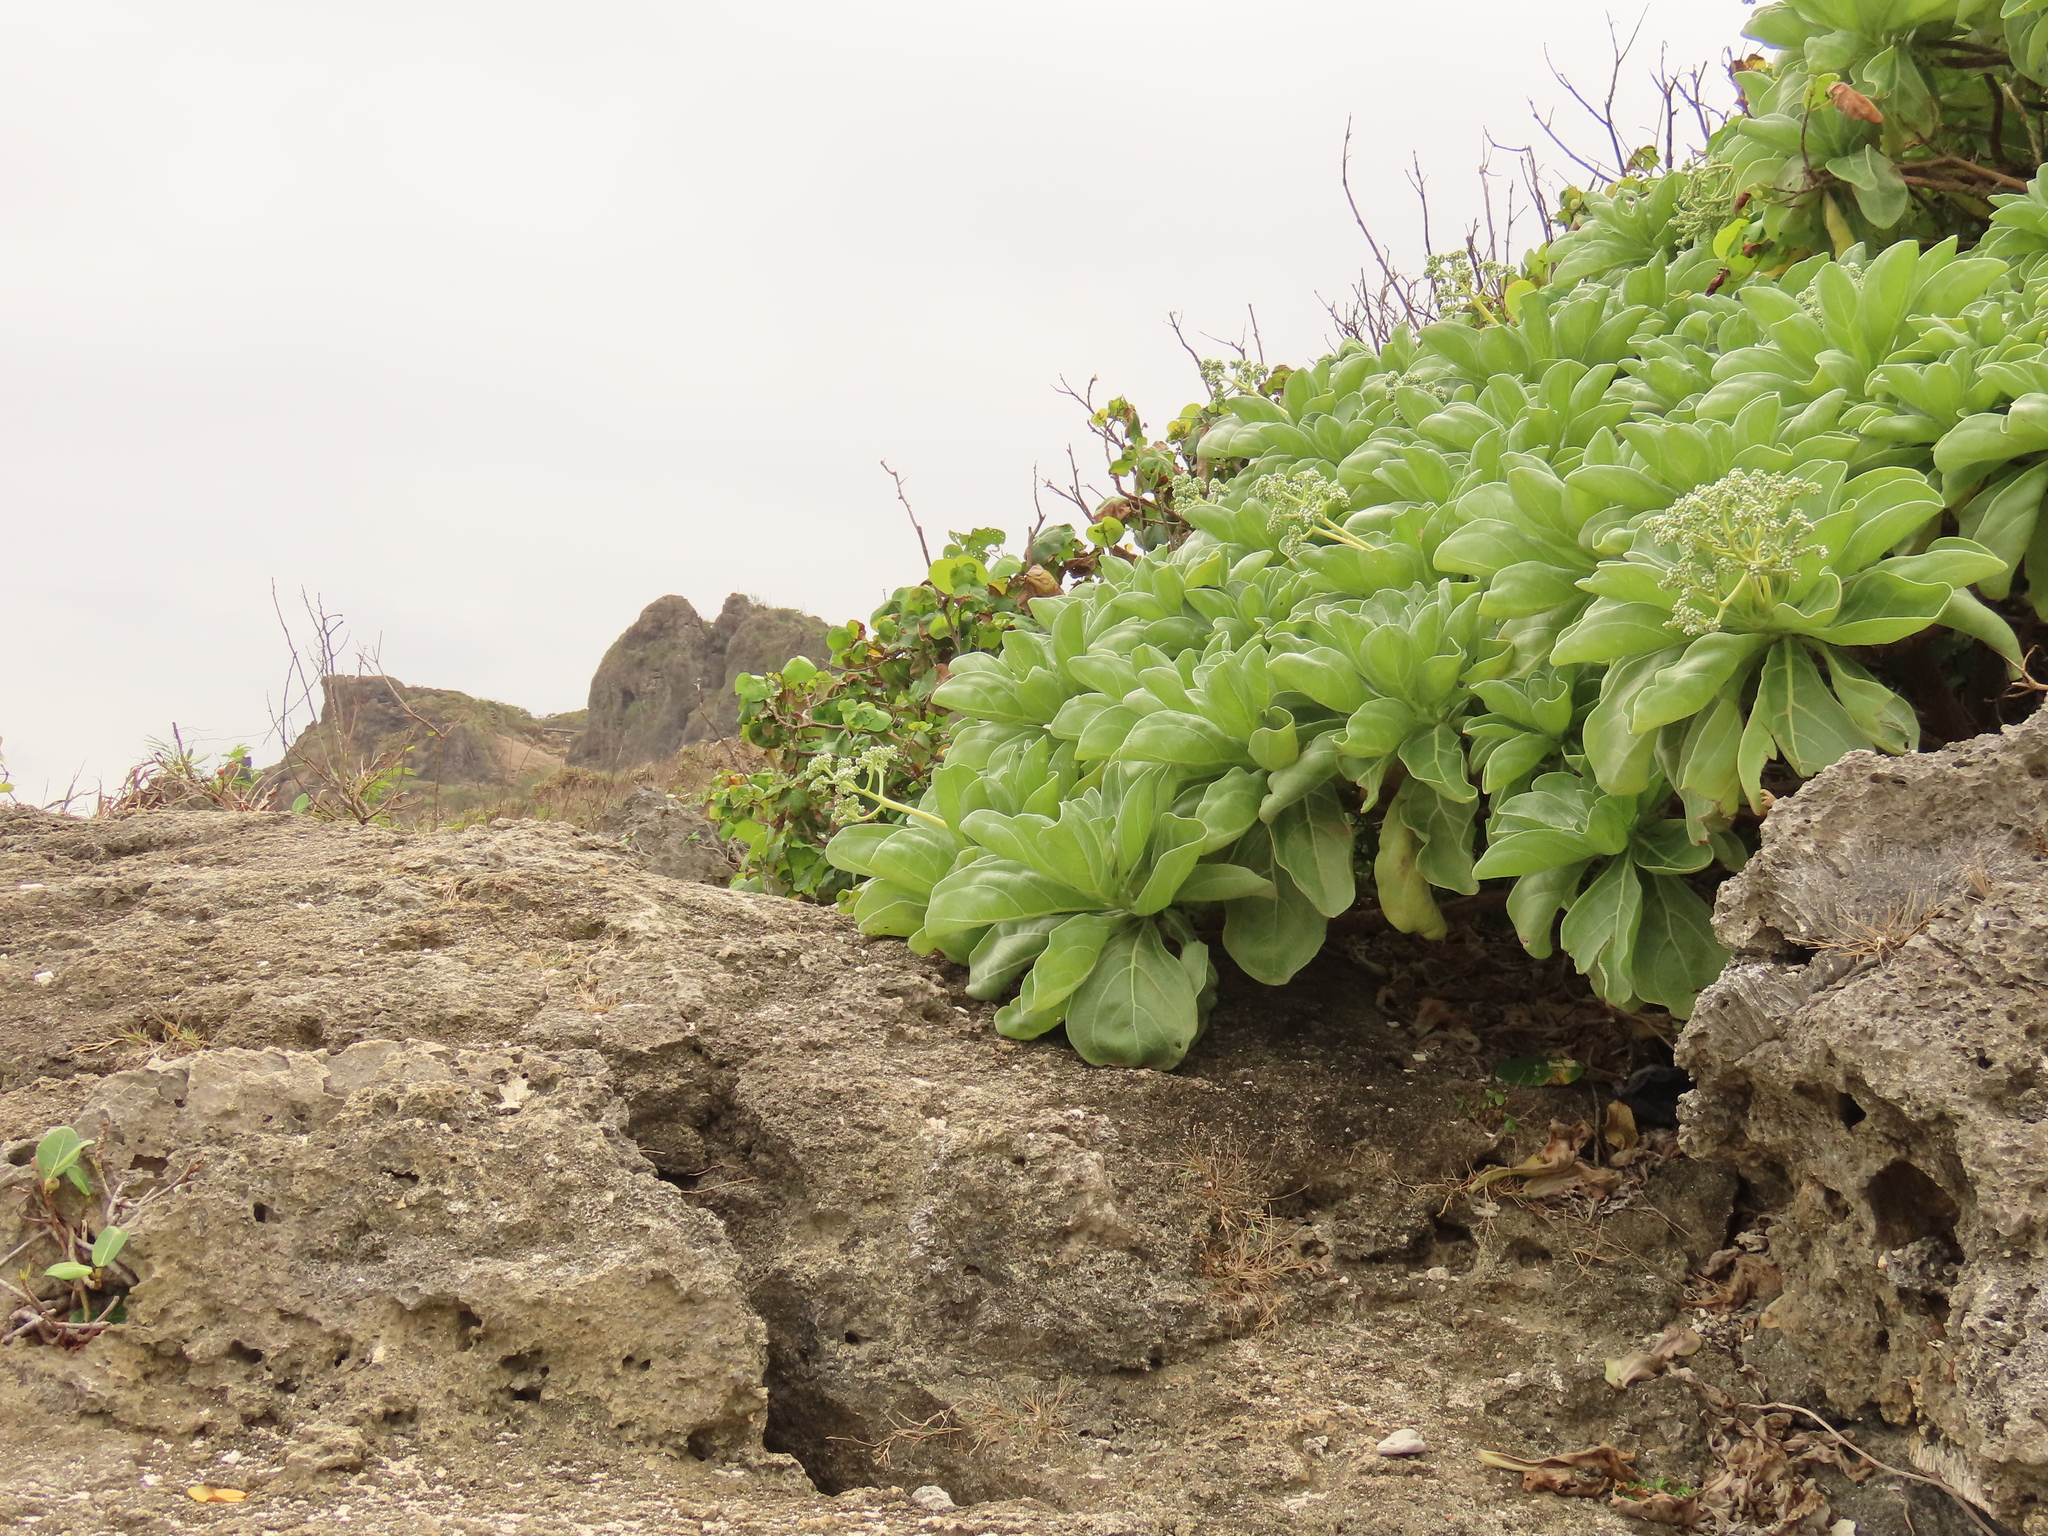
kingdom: Plantae
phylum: Tracheophyta
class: Magnoliopsida
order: Boraginales
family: Heliotropiaceae
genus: Heliotropium
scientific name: Heliotropium velutinum
